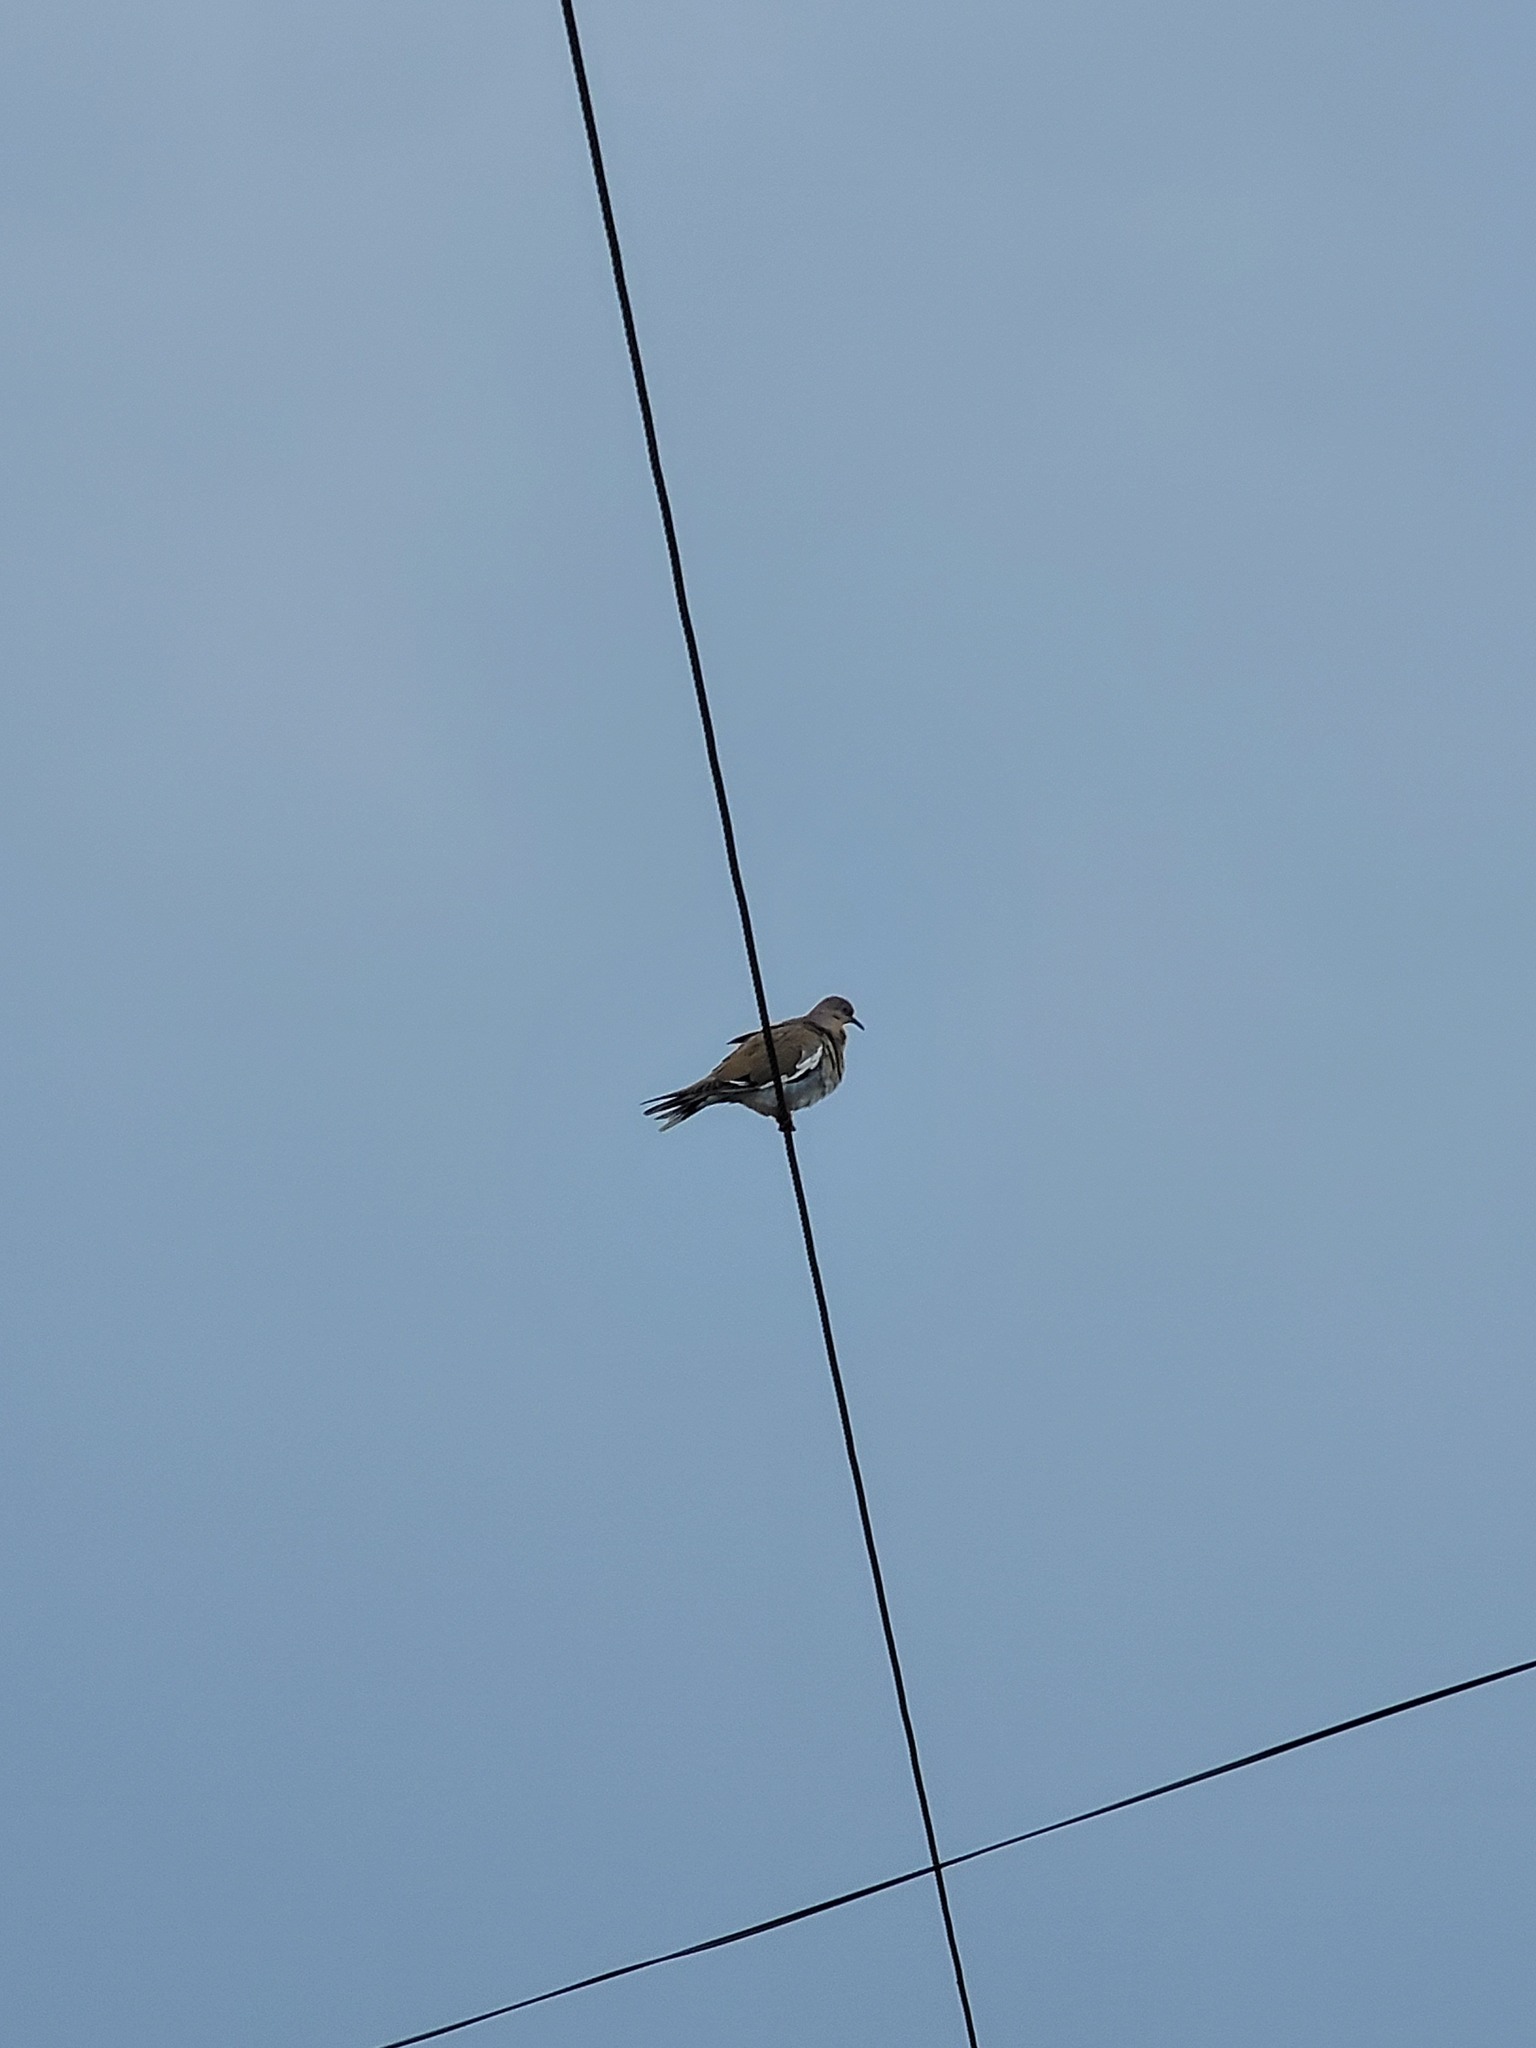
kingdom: Animalia
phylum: Chordata
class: Aves
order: Columbiformes
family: Columbidae
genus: Zenaida
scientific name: Zenaida asiatica
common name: White-winged dove
